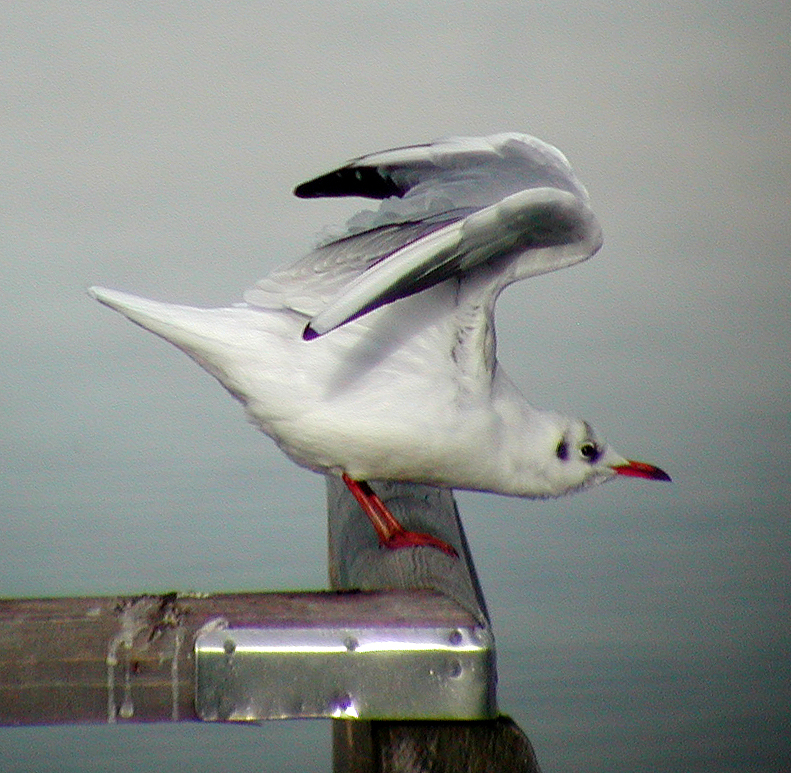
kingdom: Animalia
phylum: Chordata
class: Aves
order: Charadriiformes
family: Laridae
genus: Chroicocephalus
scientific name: Chroicocephalus ridibundus
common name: Black-headed gull
